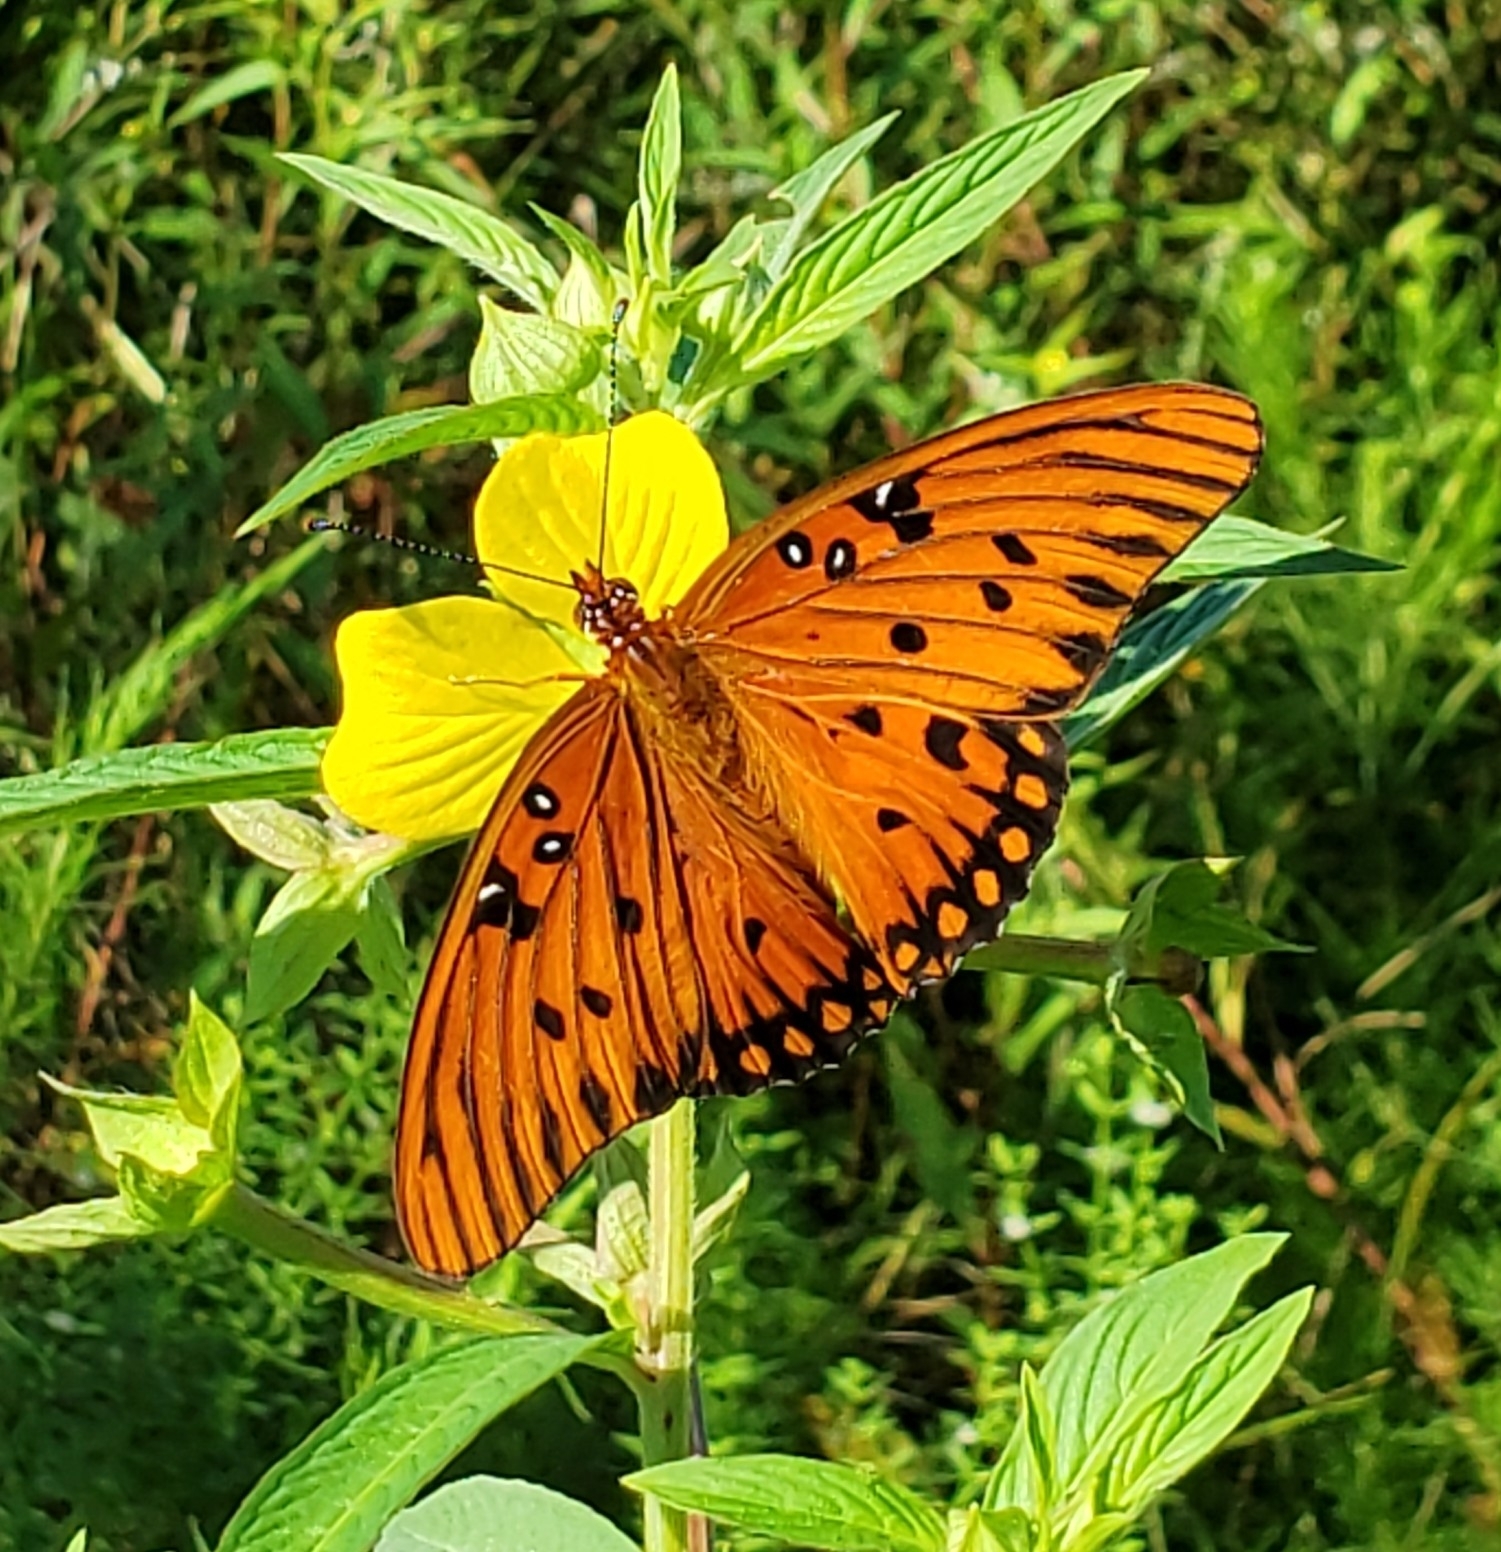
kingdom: Animalia
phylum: Arthropoda
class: Insecta
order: Lepidoptera
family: Nymphalidae
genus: Dione
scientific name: Dione vanillae
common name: Gulf fritillary
